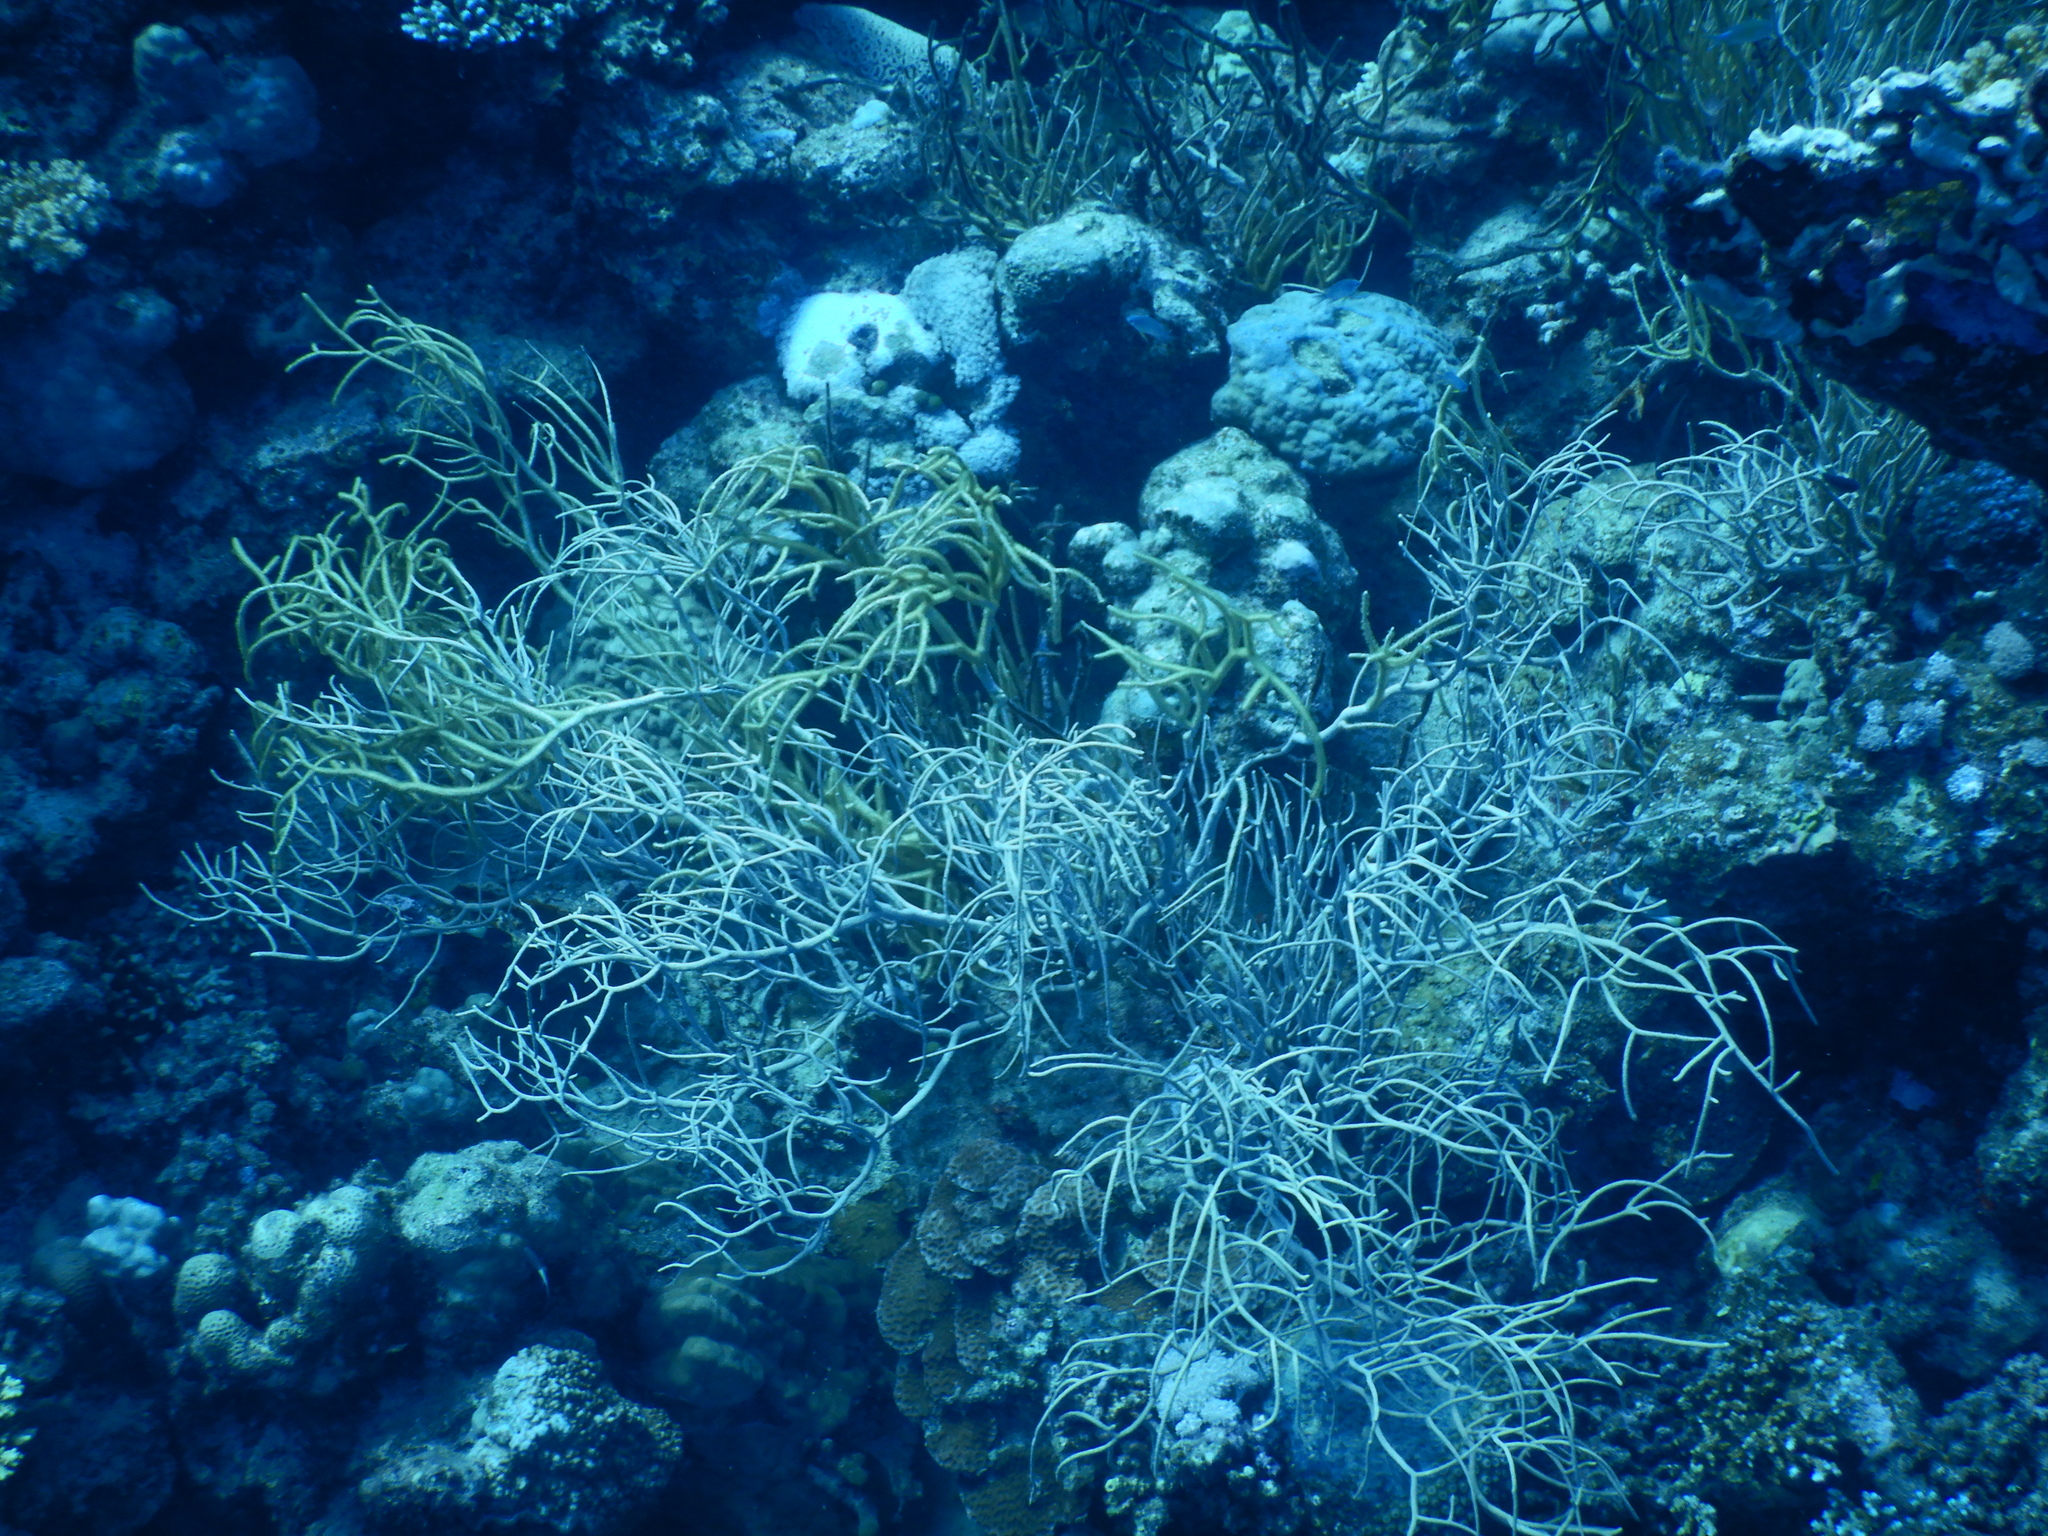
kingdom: Animalia
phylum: Cnidaria
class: Anthozoa
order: Malacalcyonacea
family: Isididae
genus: Rumphella
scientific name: Rumphella torta
